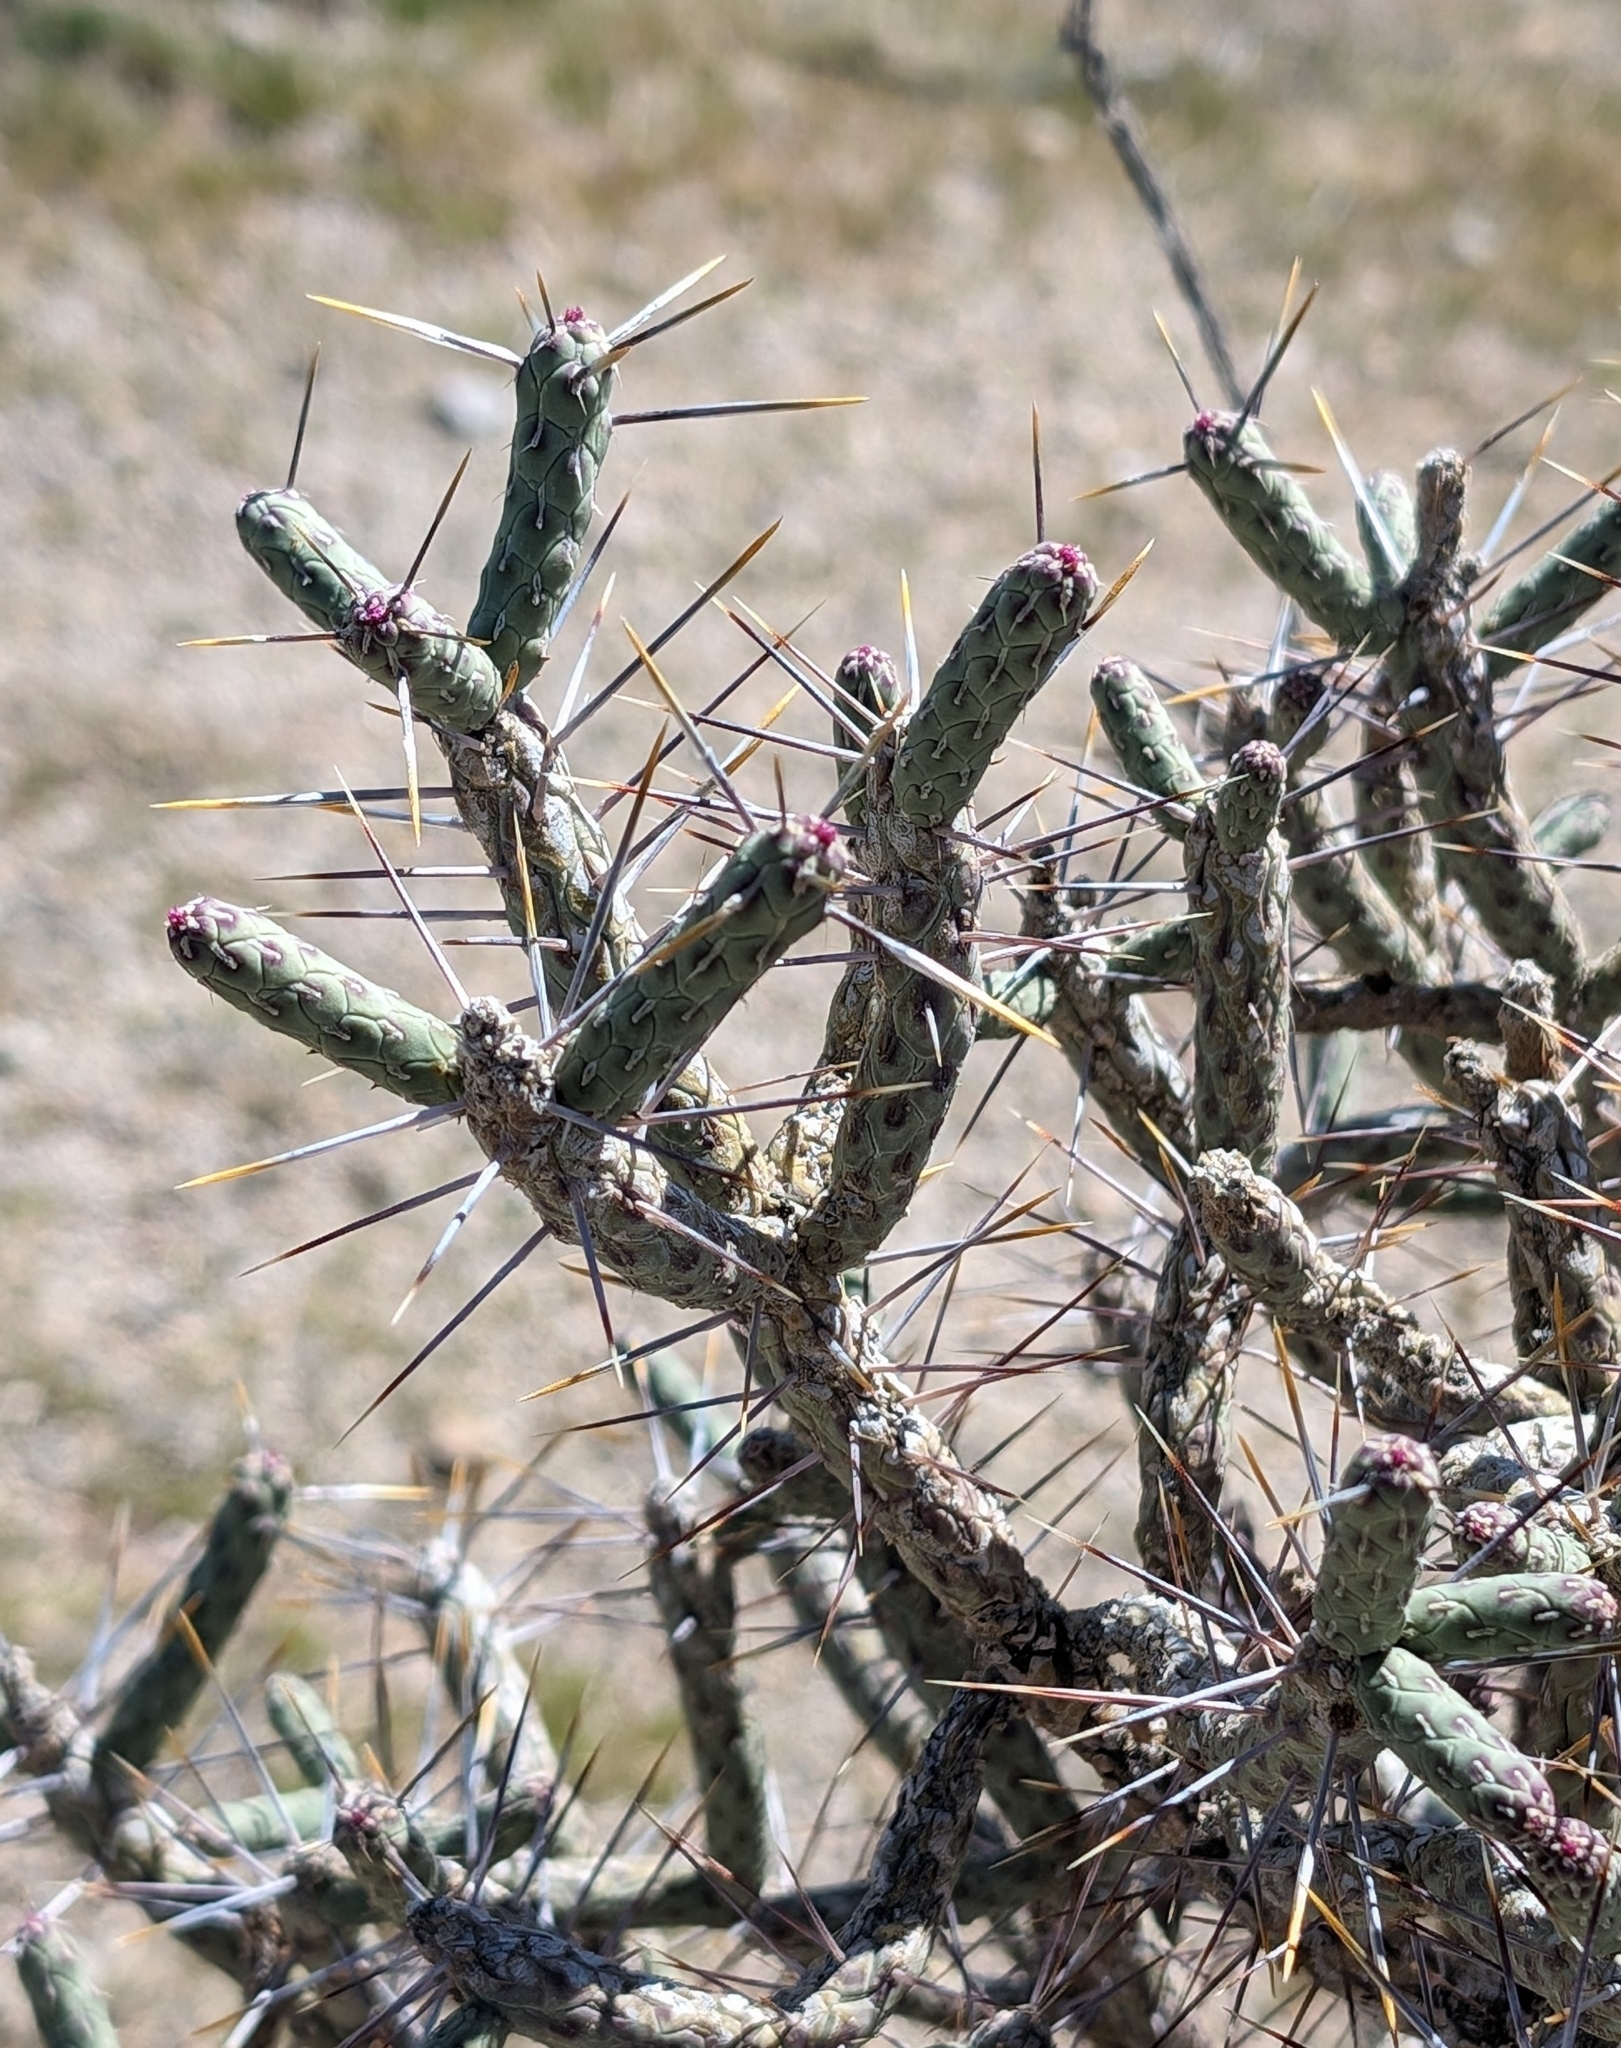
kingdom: Plantae
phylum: Tracheophyta
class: Magnoliopsida
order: Caryophyllales
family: Cactaceae
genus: Cylindropuntia
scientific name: Cylindropuntia ramosissima
